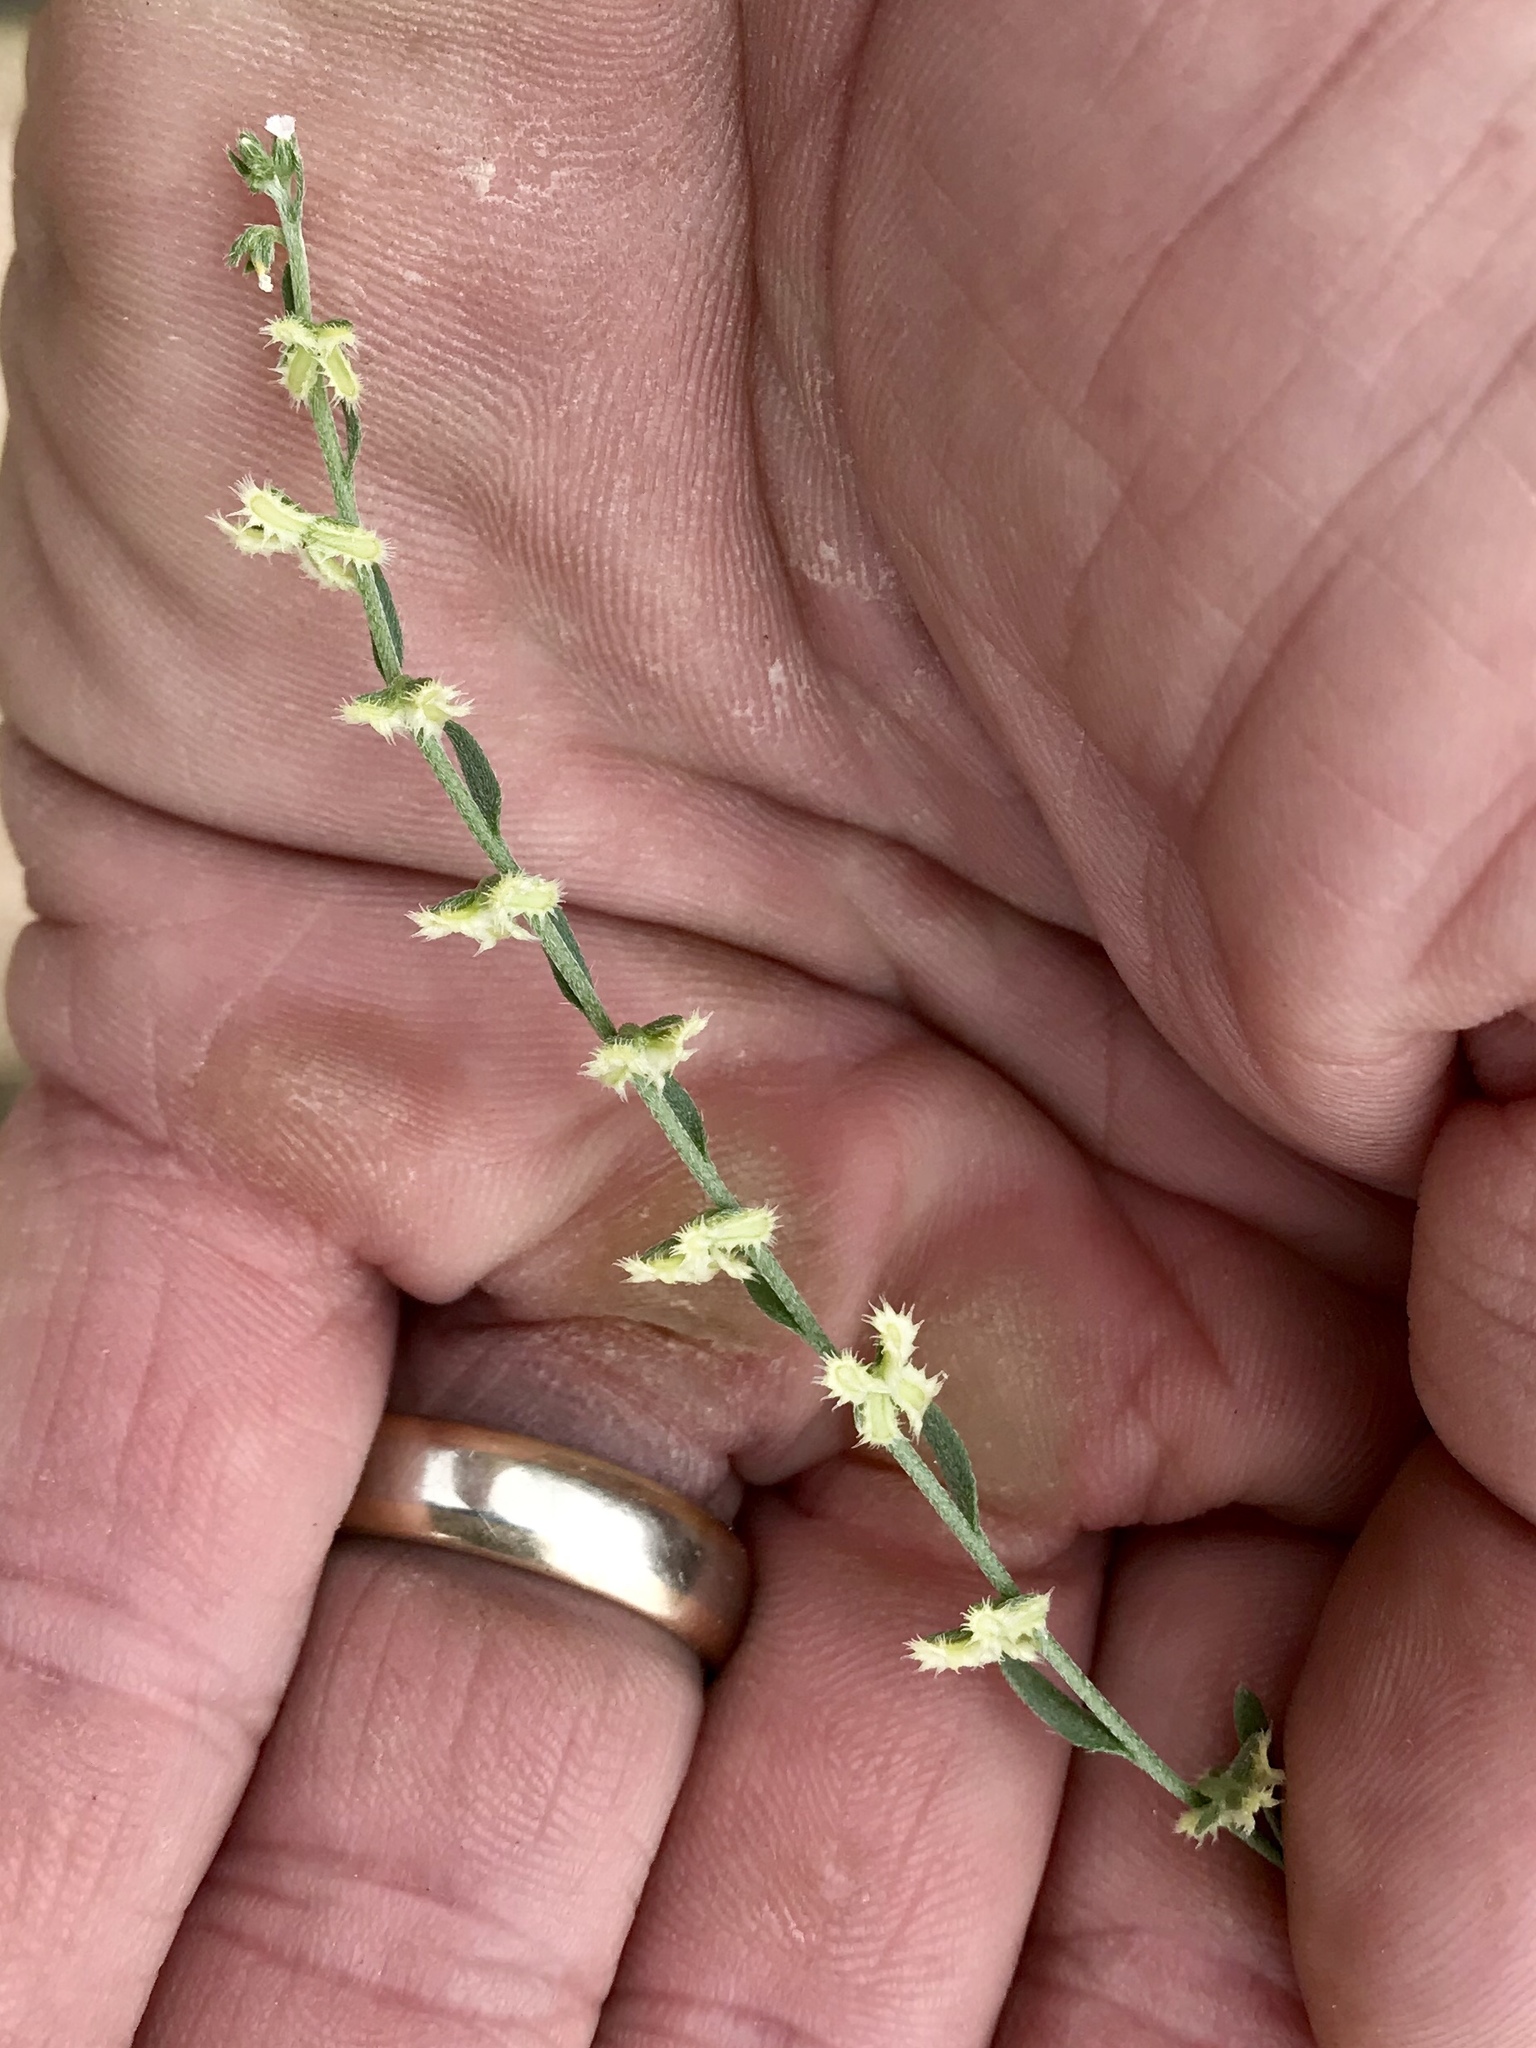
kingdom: Plantae
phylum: Tracheophyta
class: Magnoliopsida
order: Boraginales
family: Boraginaceae
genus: Pectocarya
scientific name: Pectocarya platycarpa
